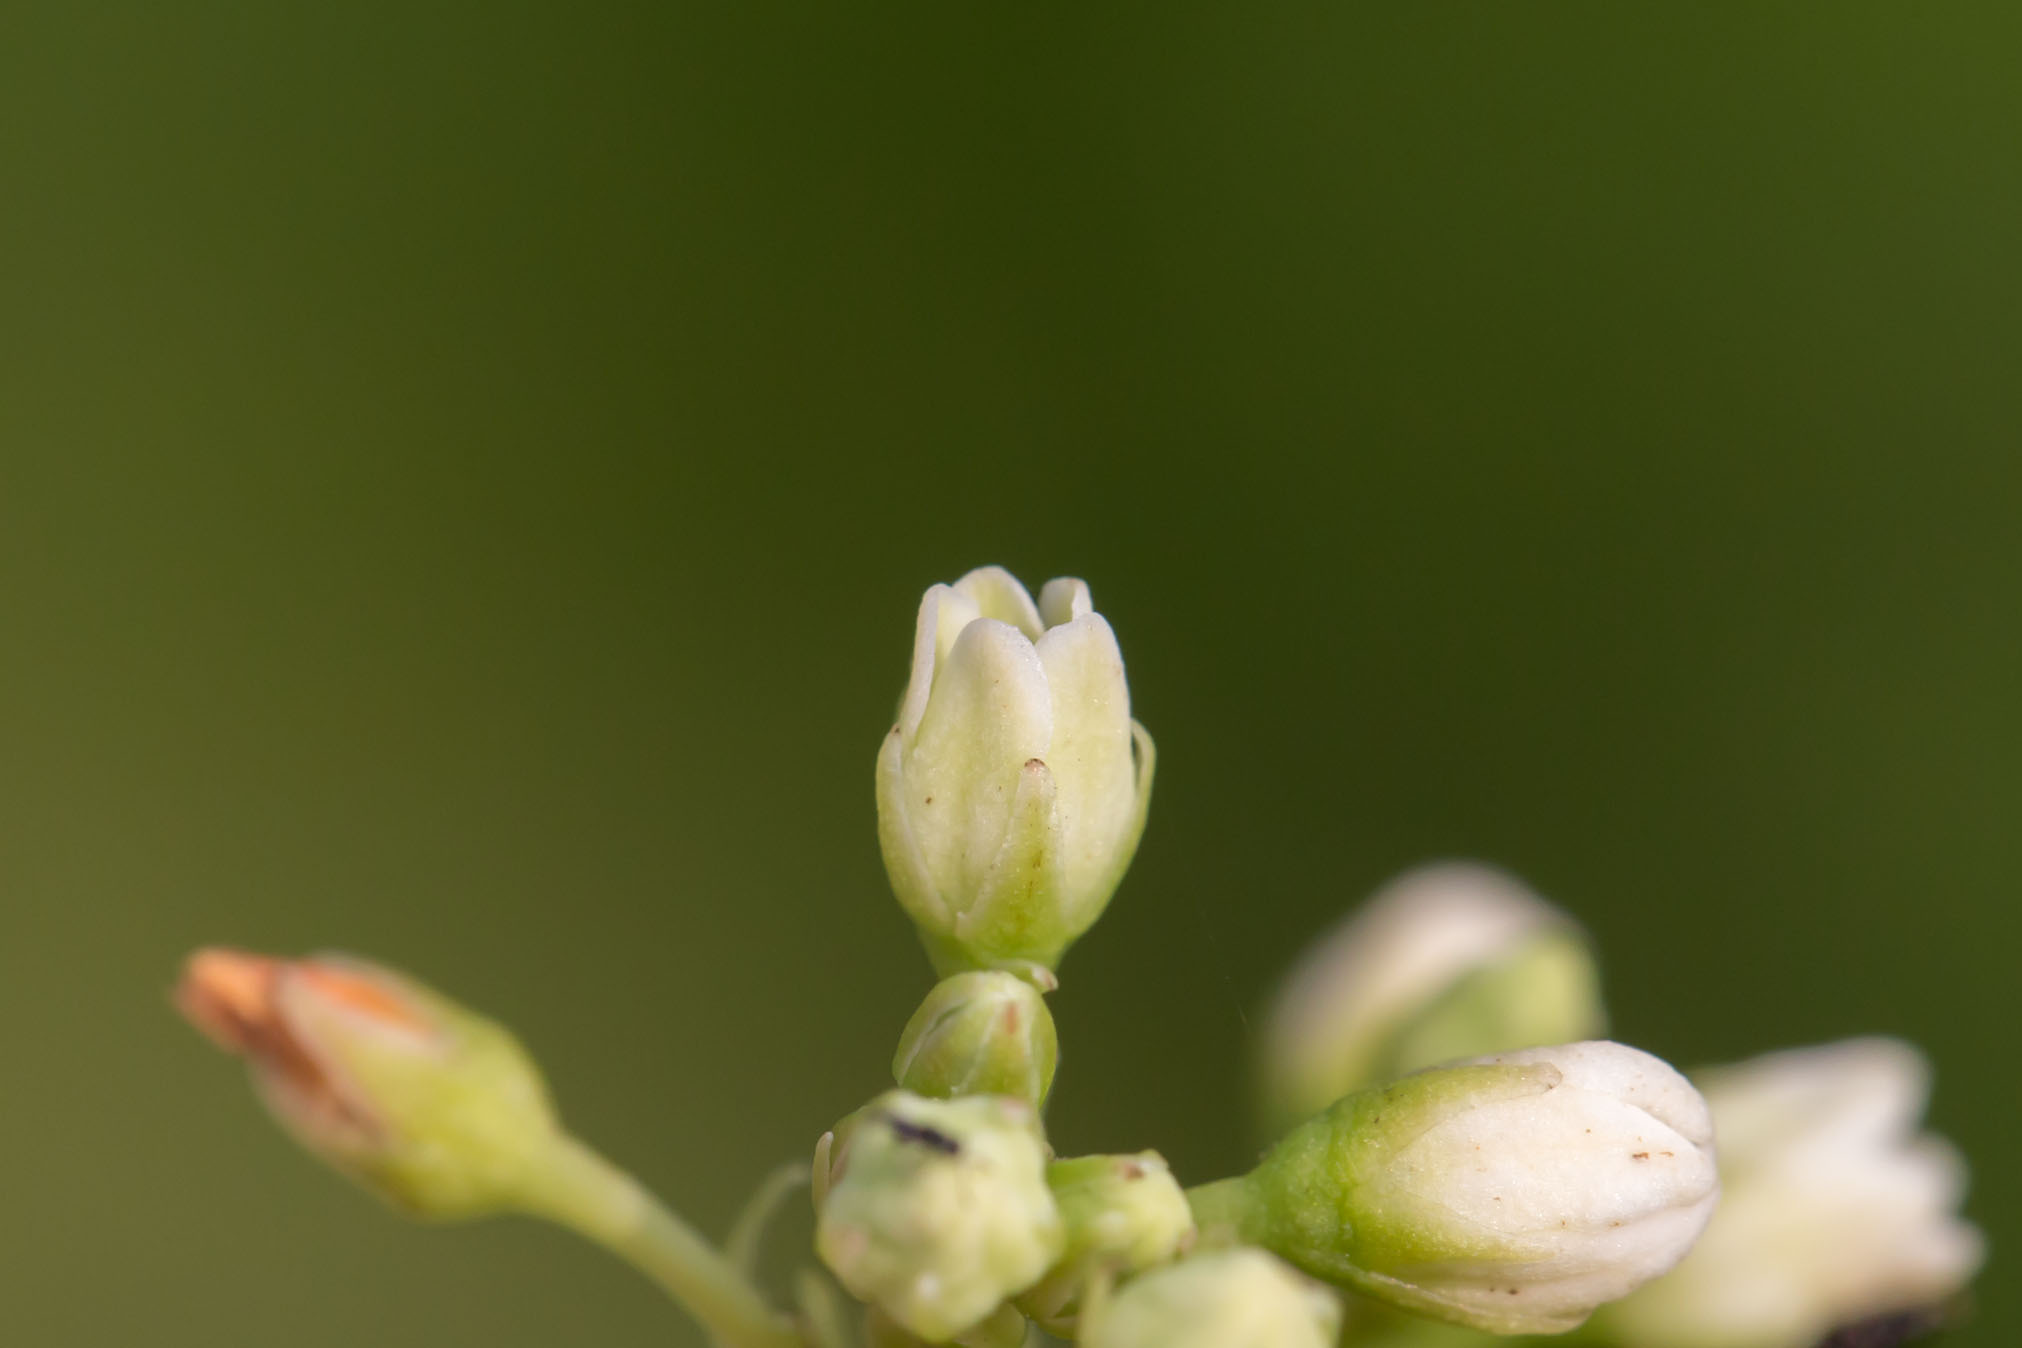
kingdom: Plantae
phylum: Tracheophyta
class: Magnoliopsida
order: Gentianales
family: Apocynaceae
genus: Apocynum
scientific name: Apocynum cannabinum
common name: Hemp dogbane
